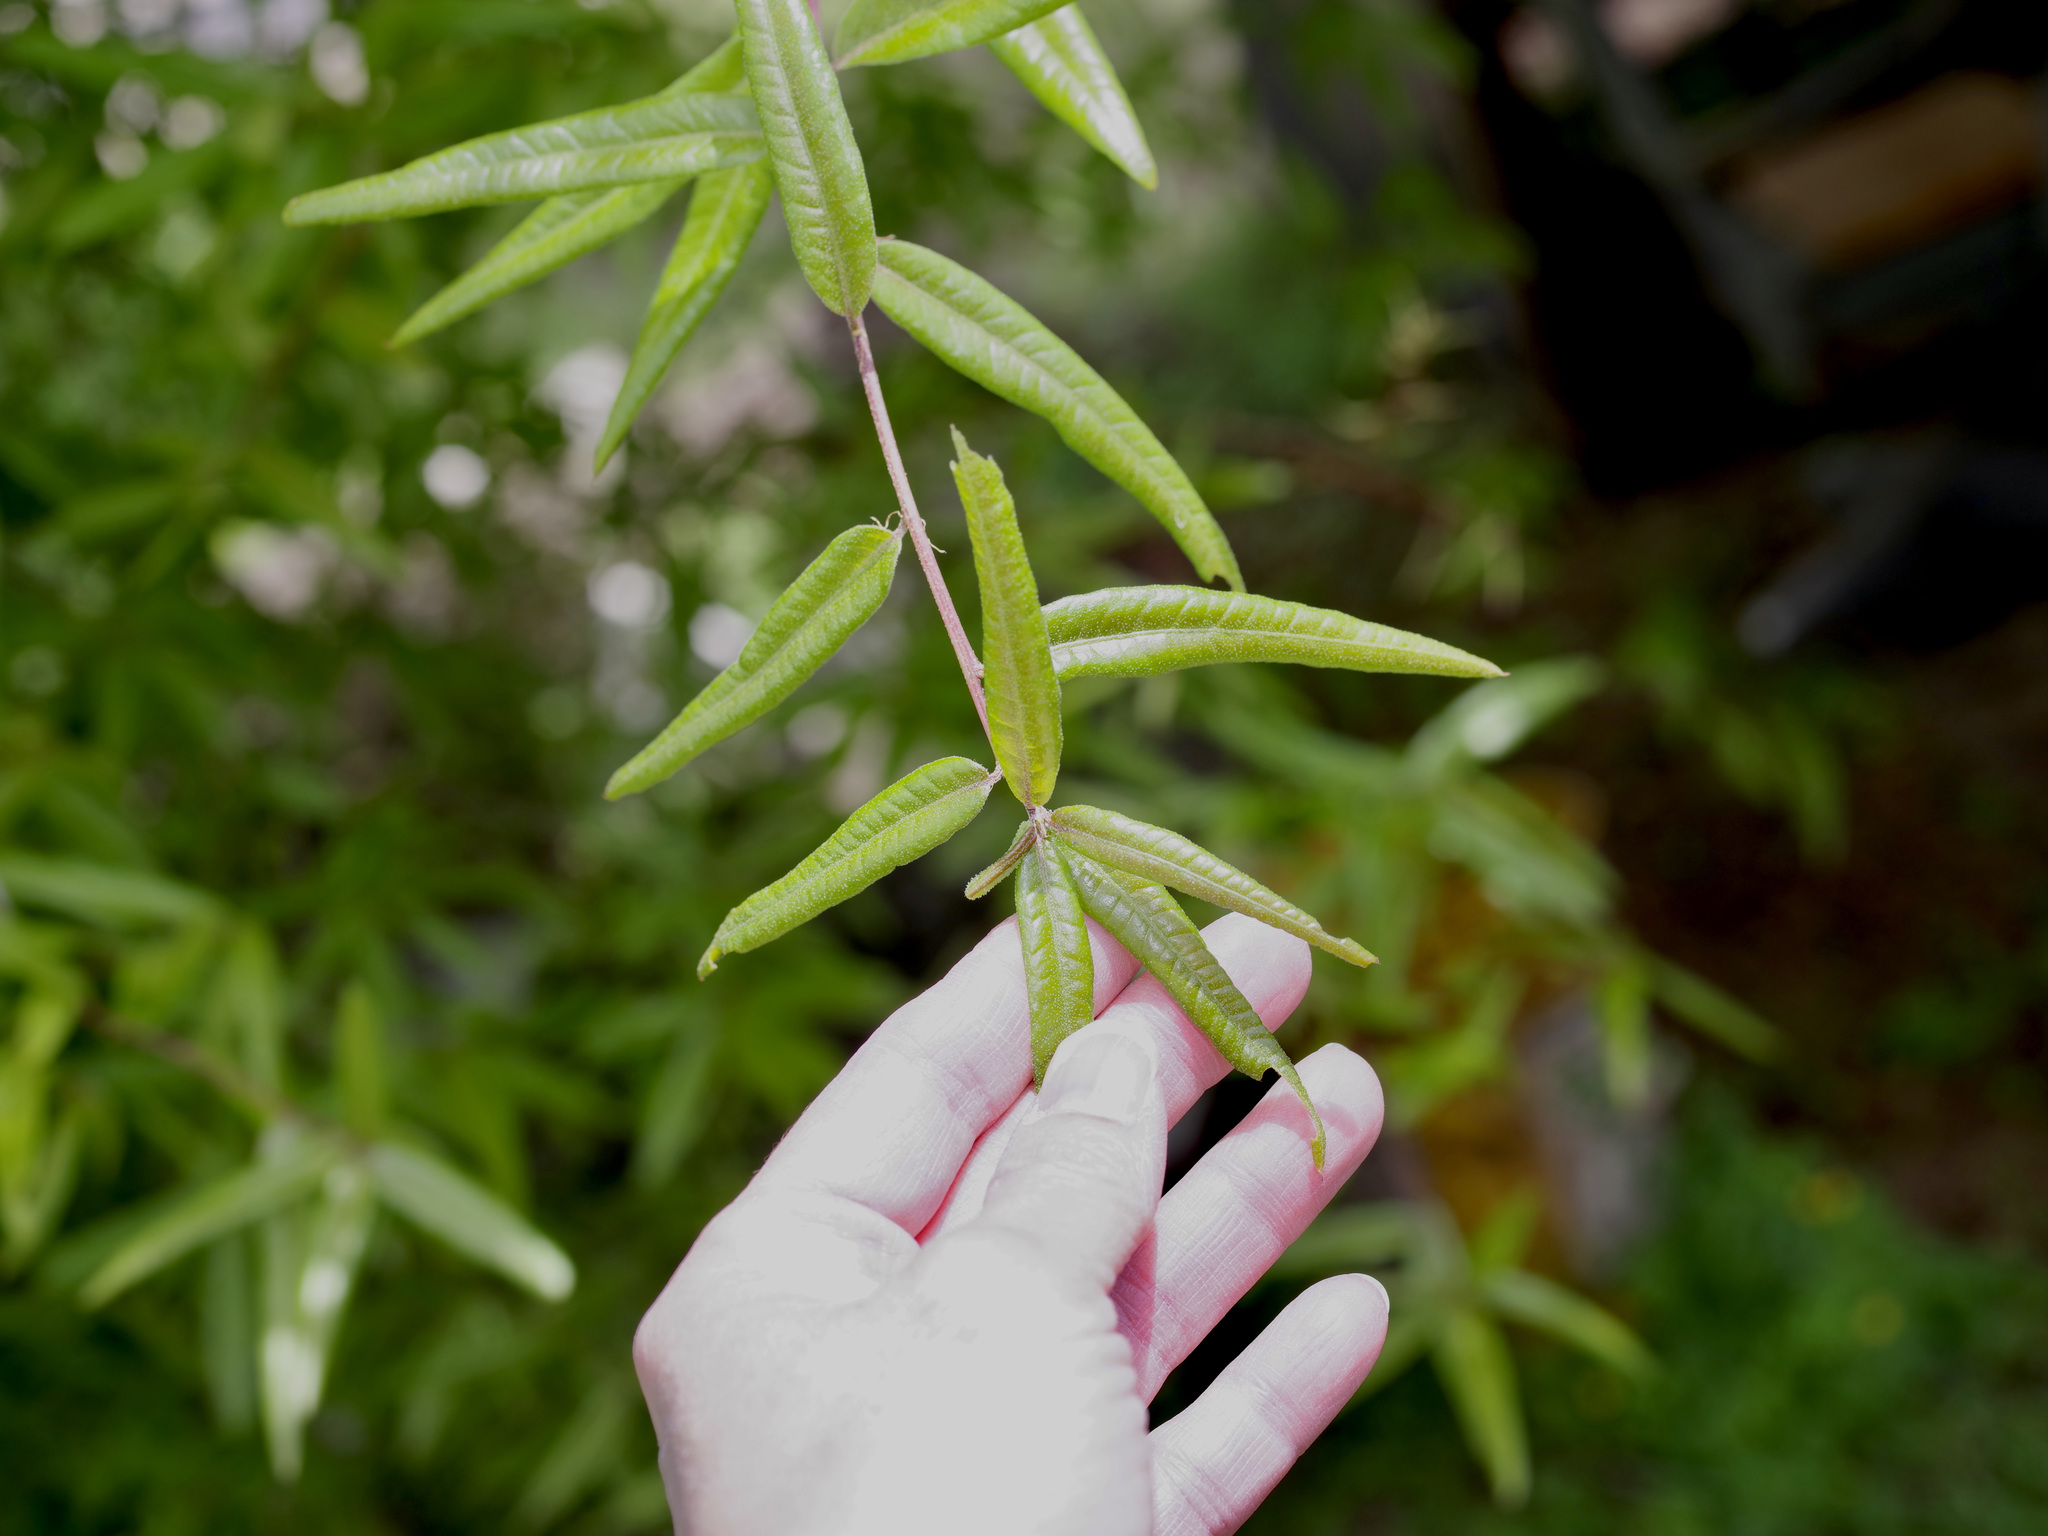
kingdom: Plantae
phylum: Tracheophyta
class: Magnoliopsida
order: Fagales
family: Fagaceae
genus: Quercus
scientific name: Quercus phellos
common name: Willow oak
